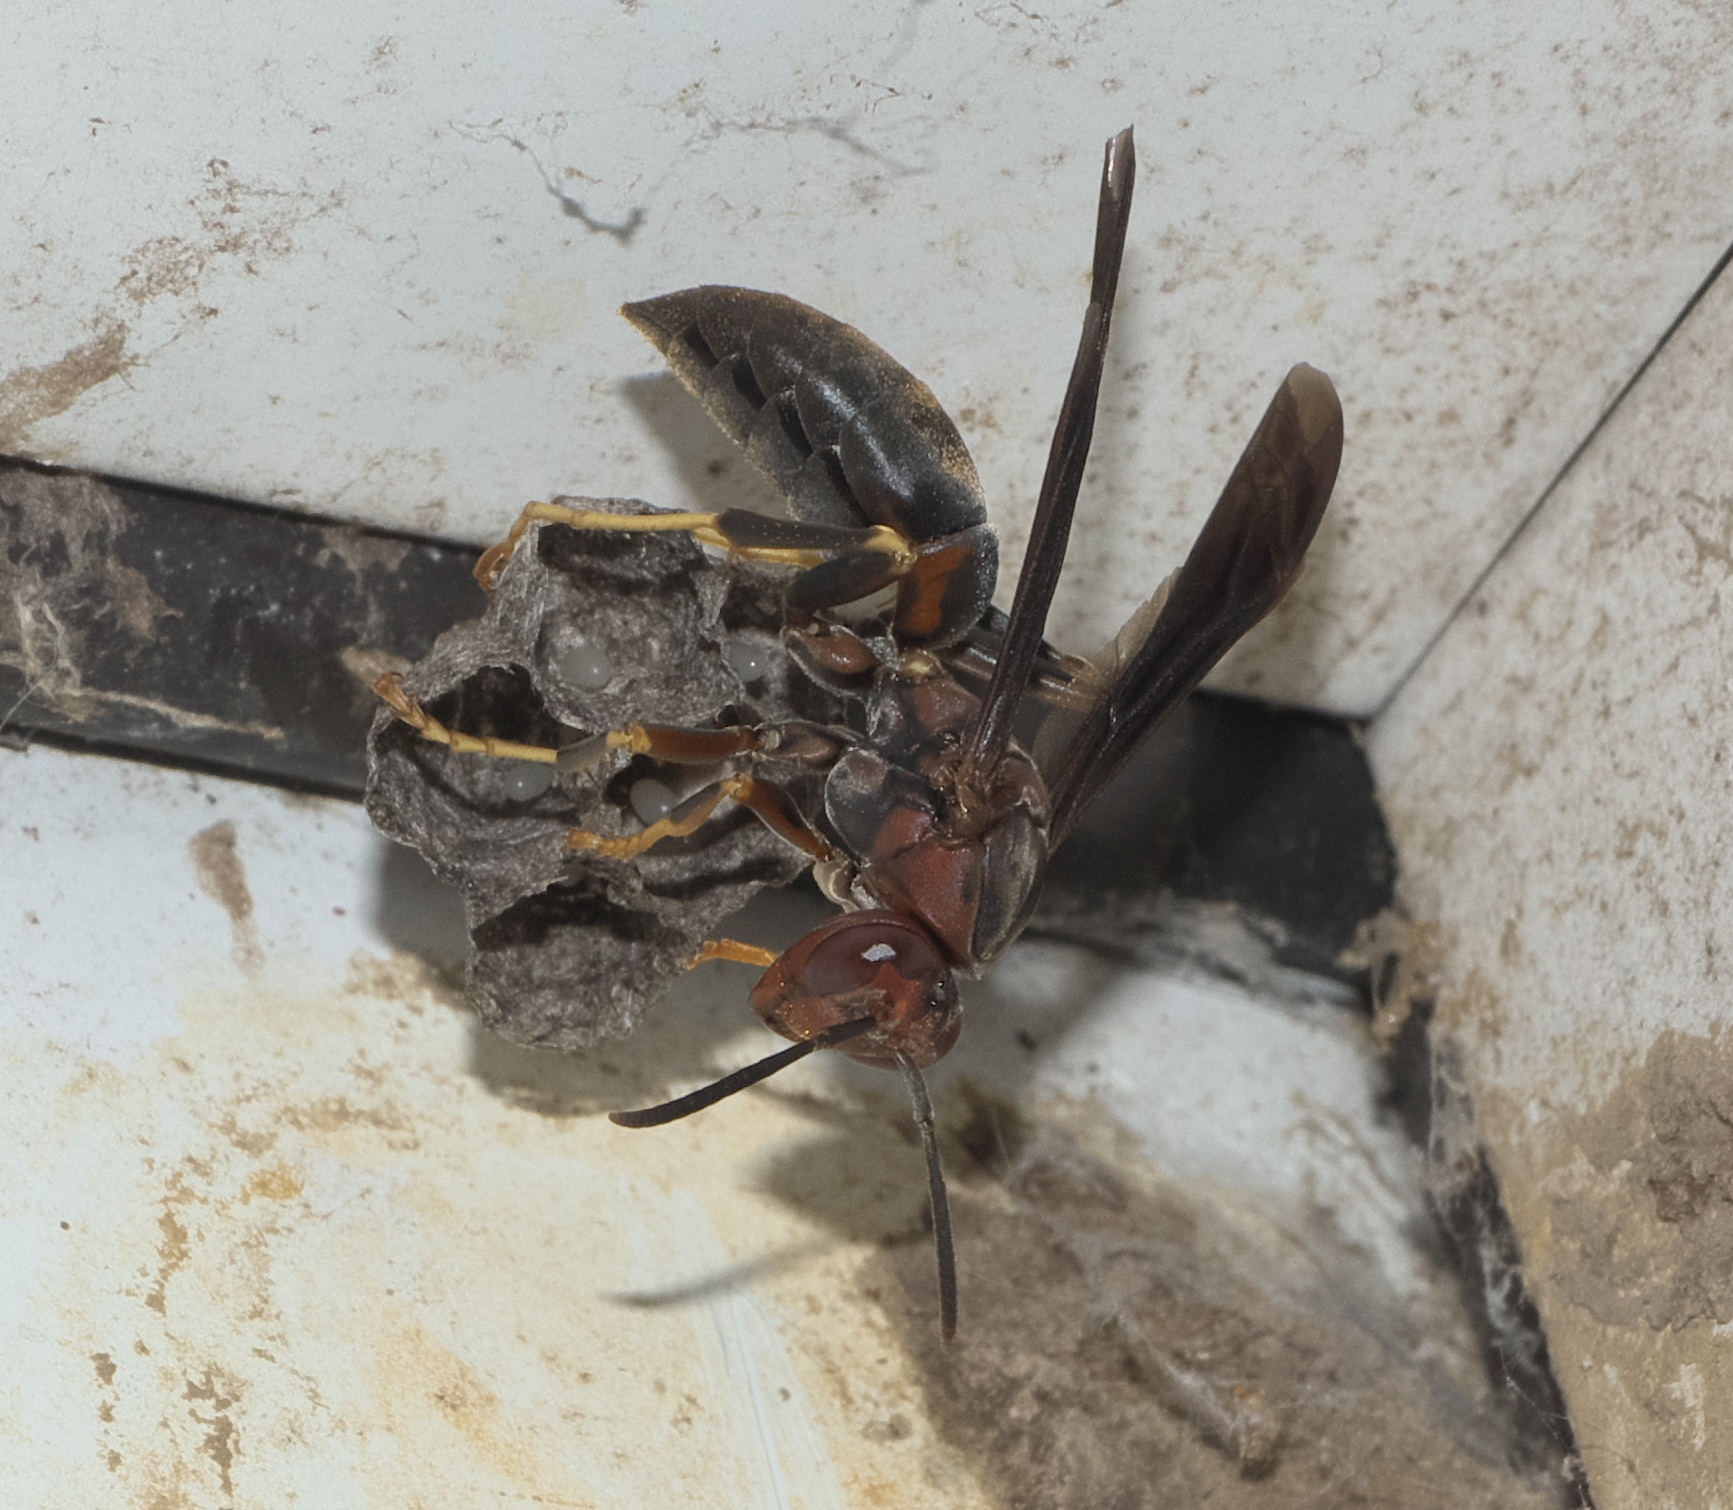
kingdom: Animalia
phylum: Arthropoda
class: Insecta
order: Hymenoptera
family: Eumenidae
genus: Polistes
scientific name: Polistes metricus
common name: Metric paper wasp
